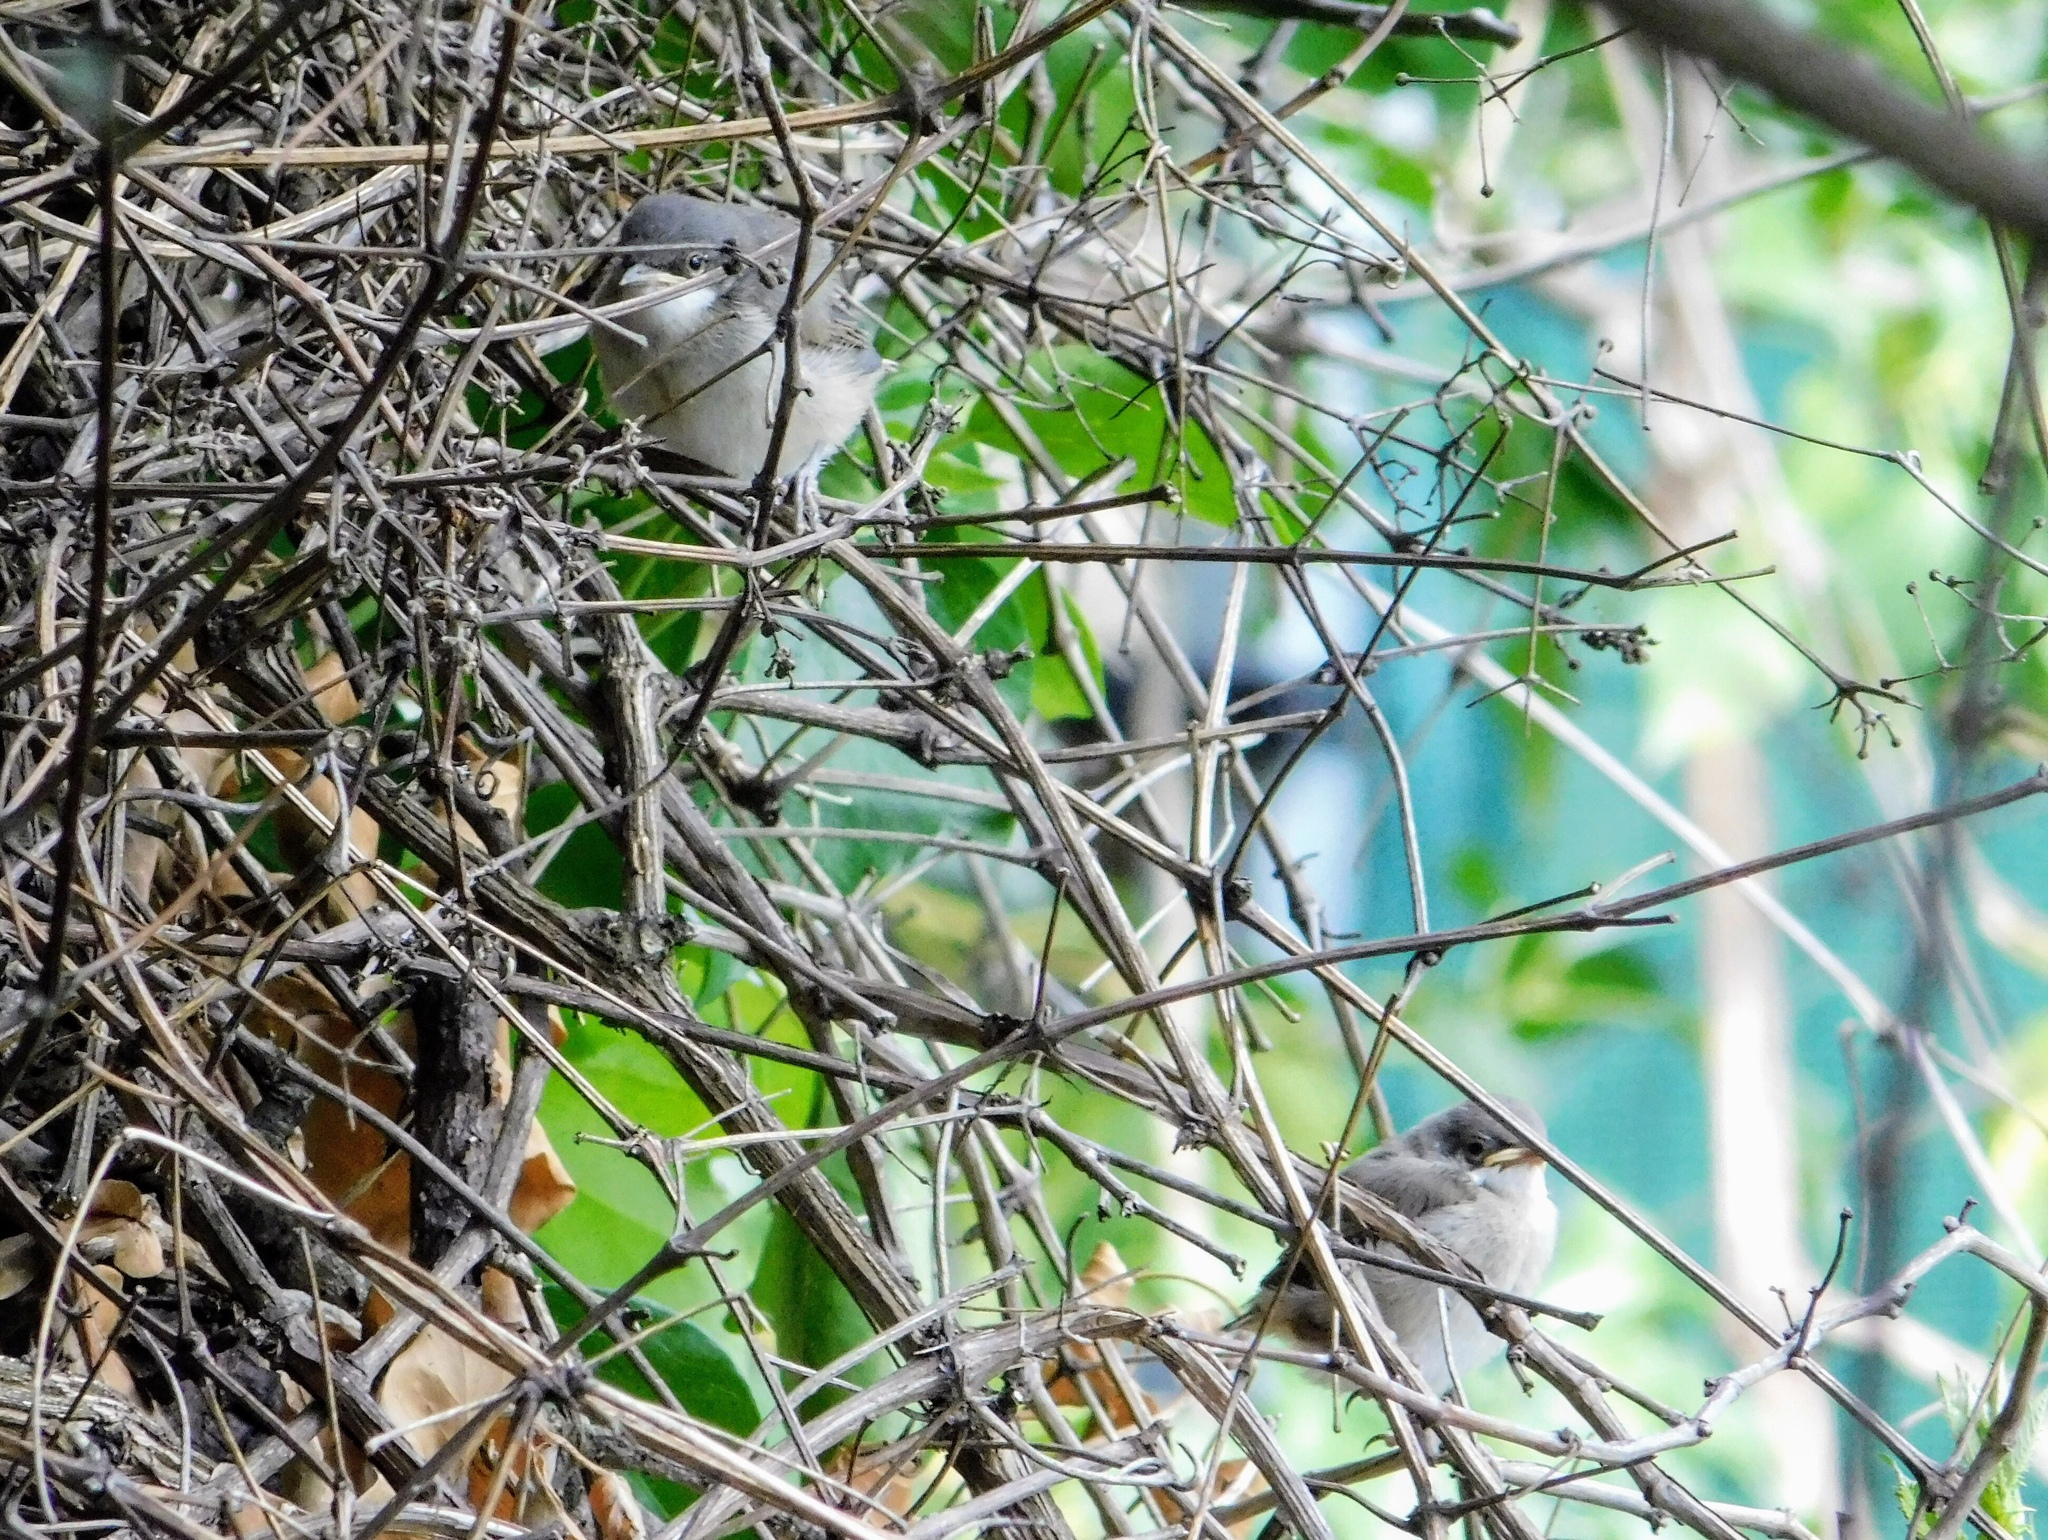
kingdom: Animalia
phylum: Chordata
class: Aves
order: Passeriformes
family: Sylviidae
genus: Sylvia
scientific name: Sylvia curruca
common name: Lesser whitethroat
